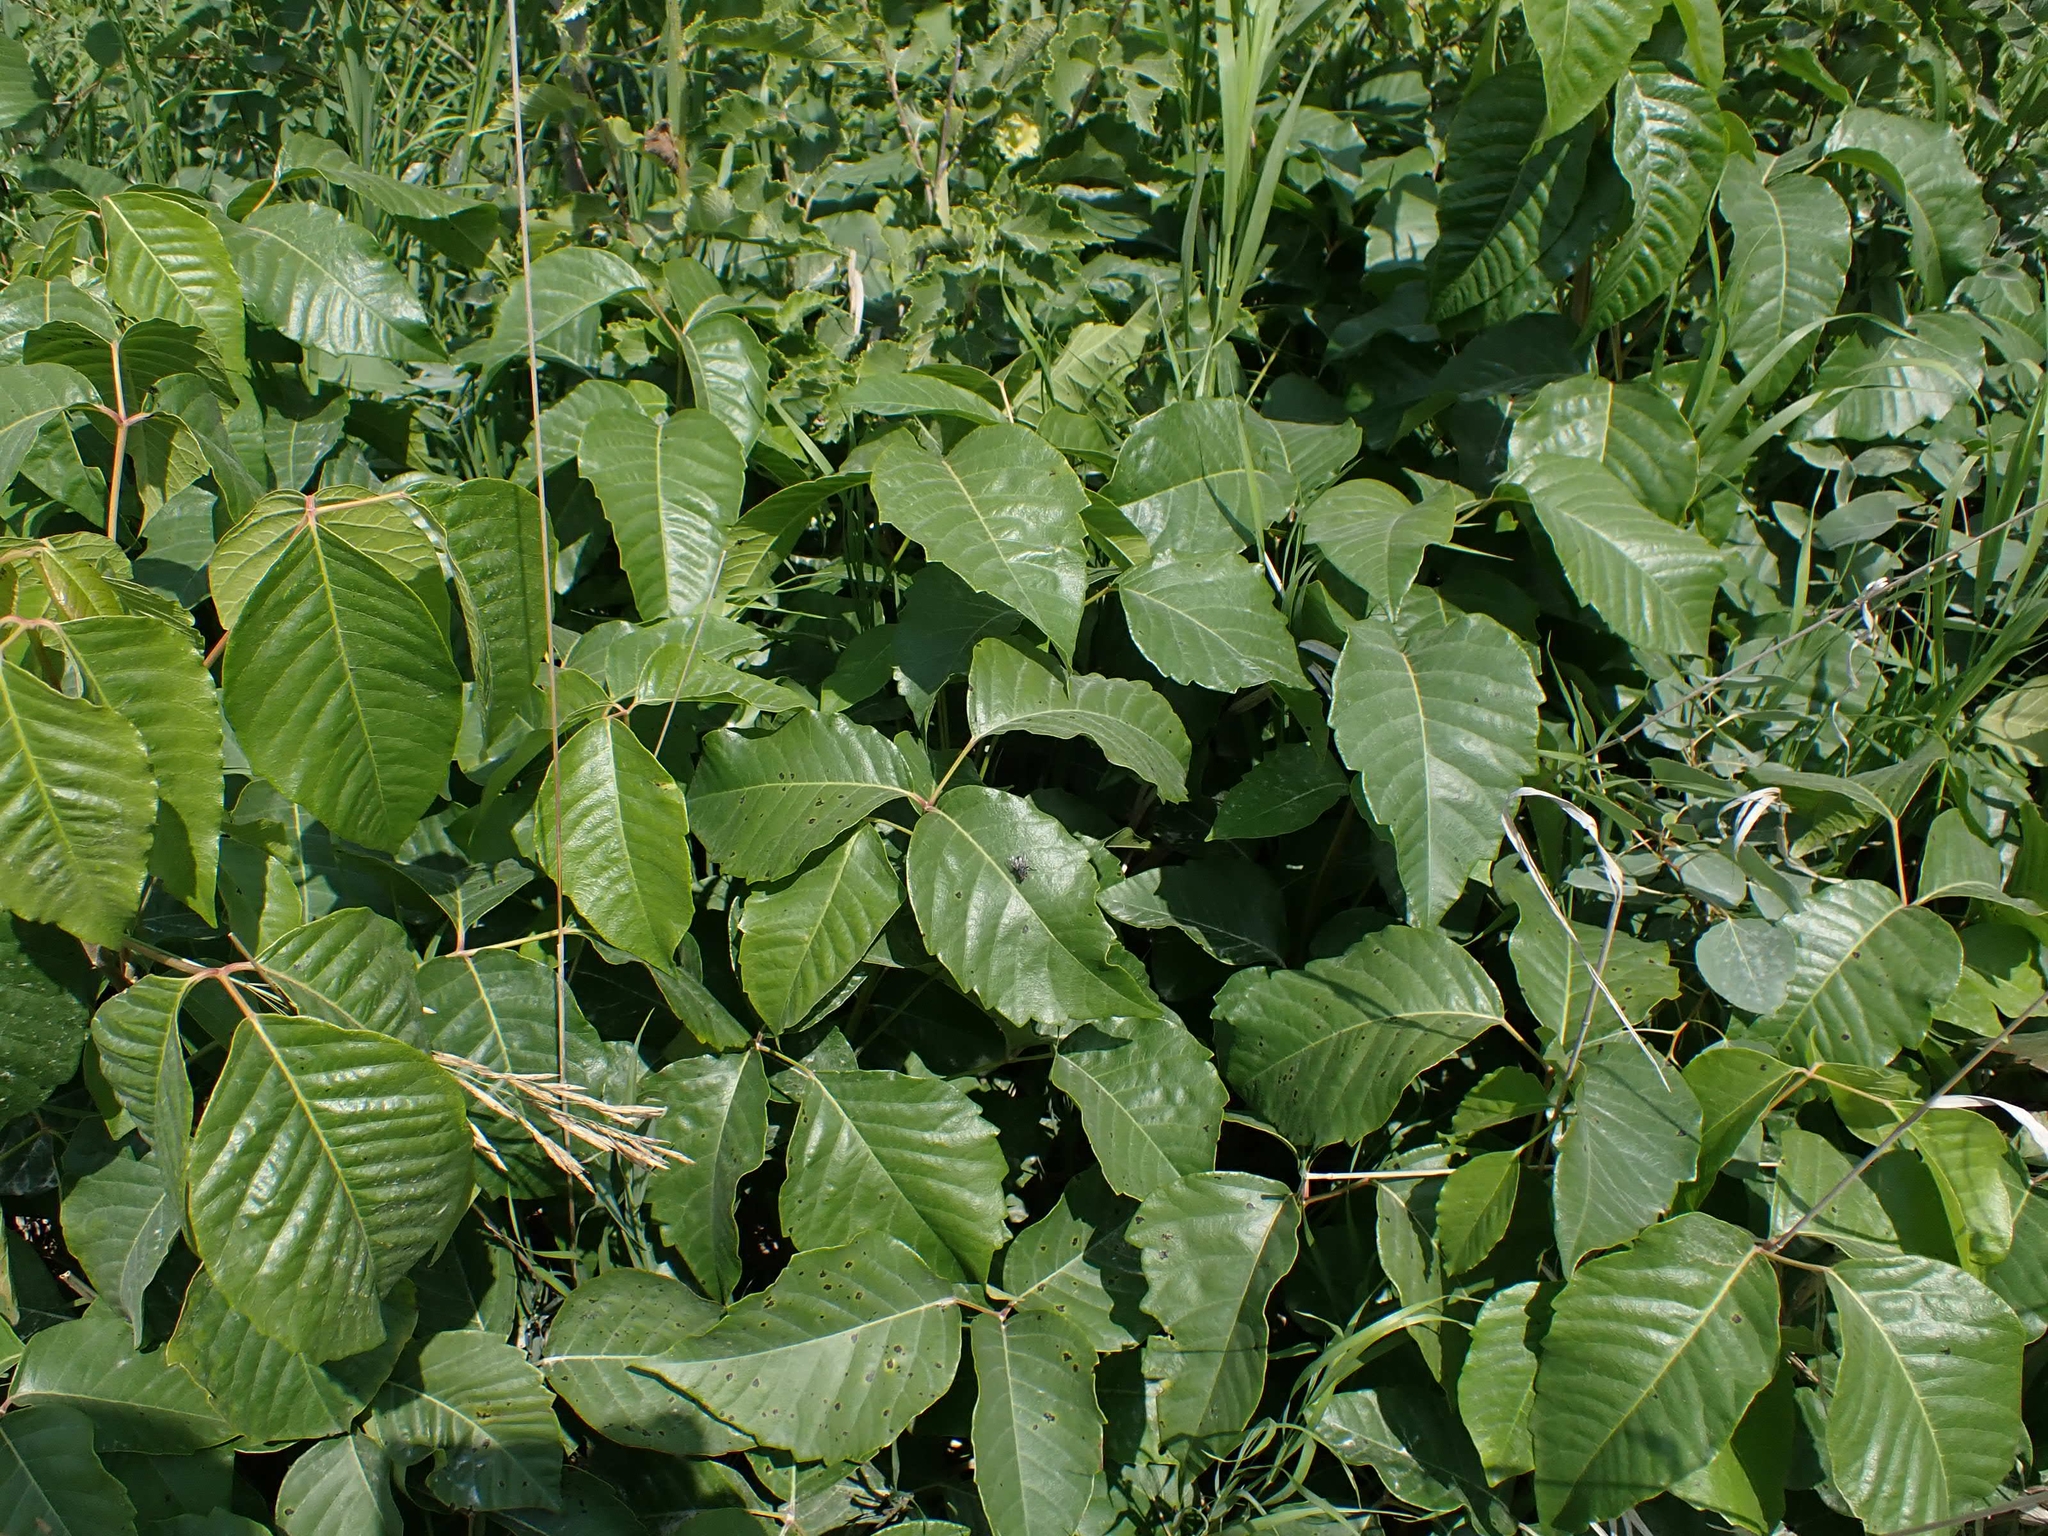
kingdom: Plantae
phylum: Tracheophyta
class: Magnoliopsida
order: Sapindales
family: Anacardiaceae
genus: Toxicodendron
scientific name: Toxicodendron rydbergii
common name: Rydberg's poison-ivy
